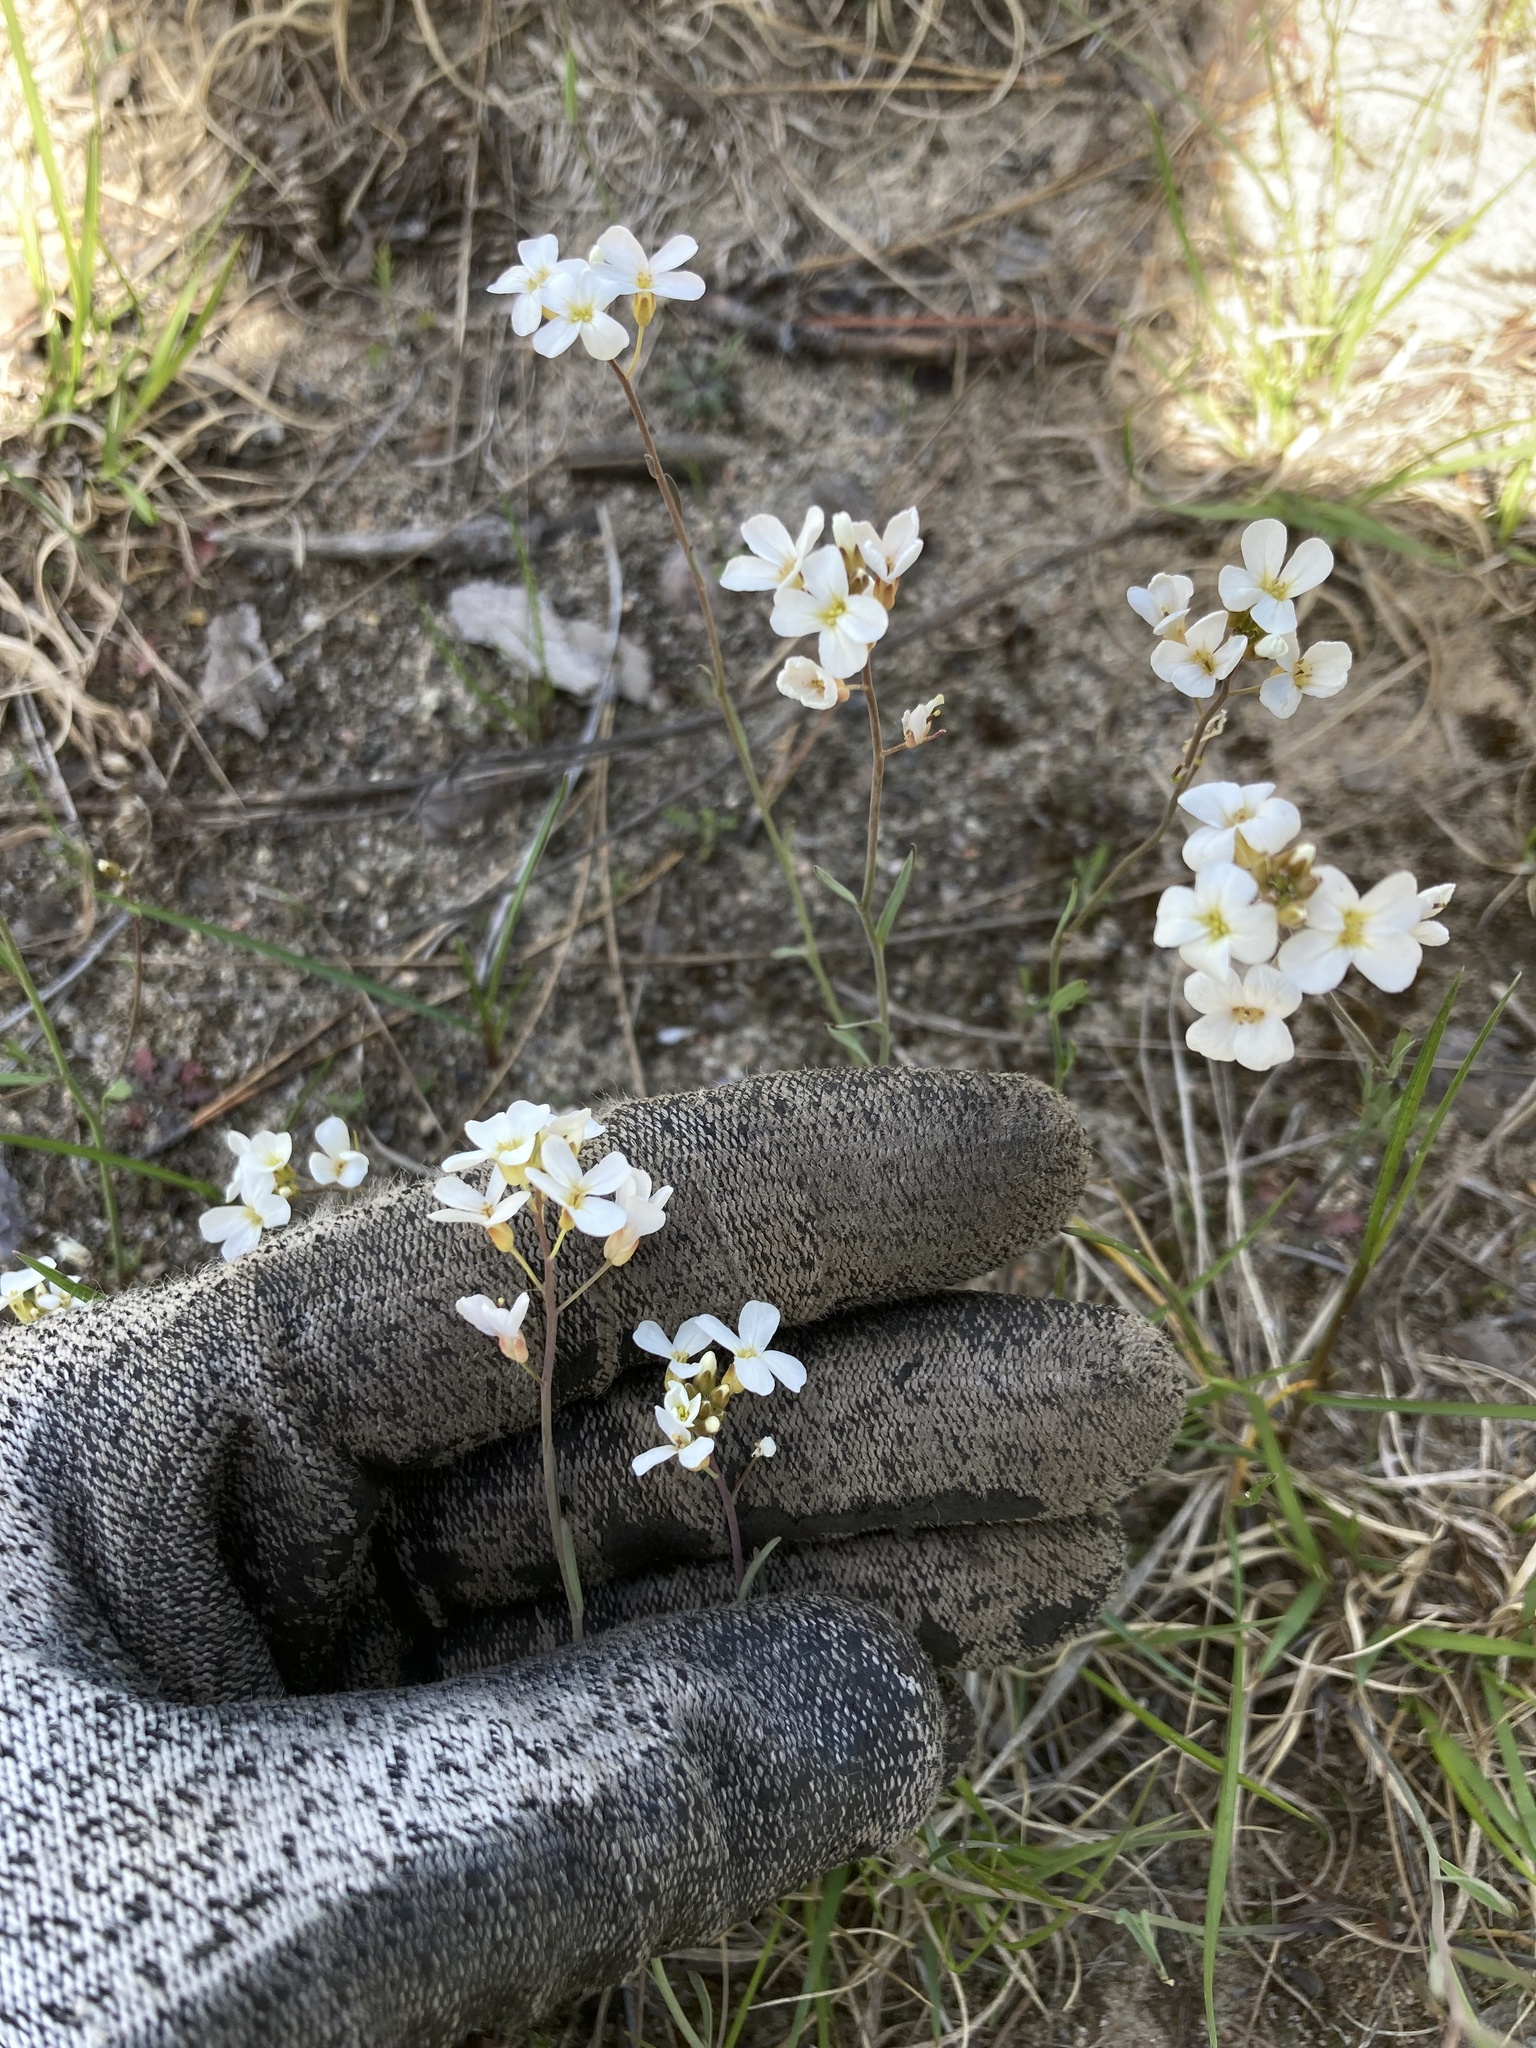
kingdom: Plantae
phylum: Tracheophyta
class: Magnoliopsida
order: Brassicales
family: Brassicaceae
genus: Arabidopsis
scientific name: Arabidopsis lyrata
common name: Lyrate rockcress
